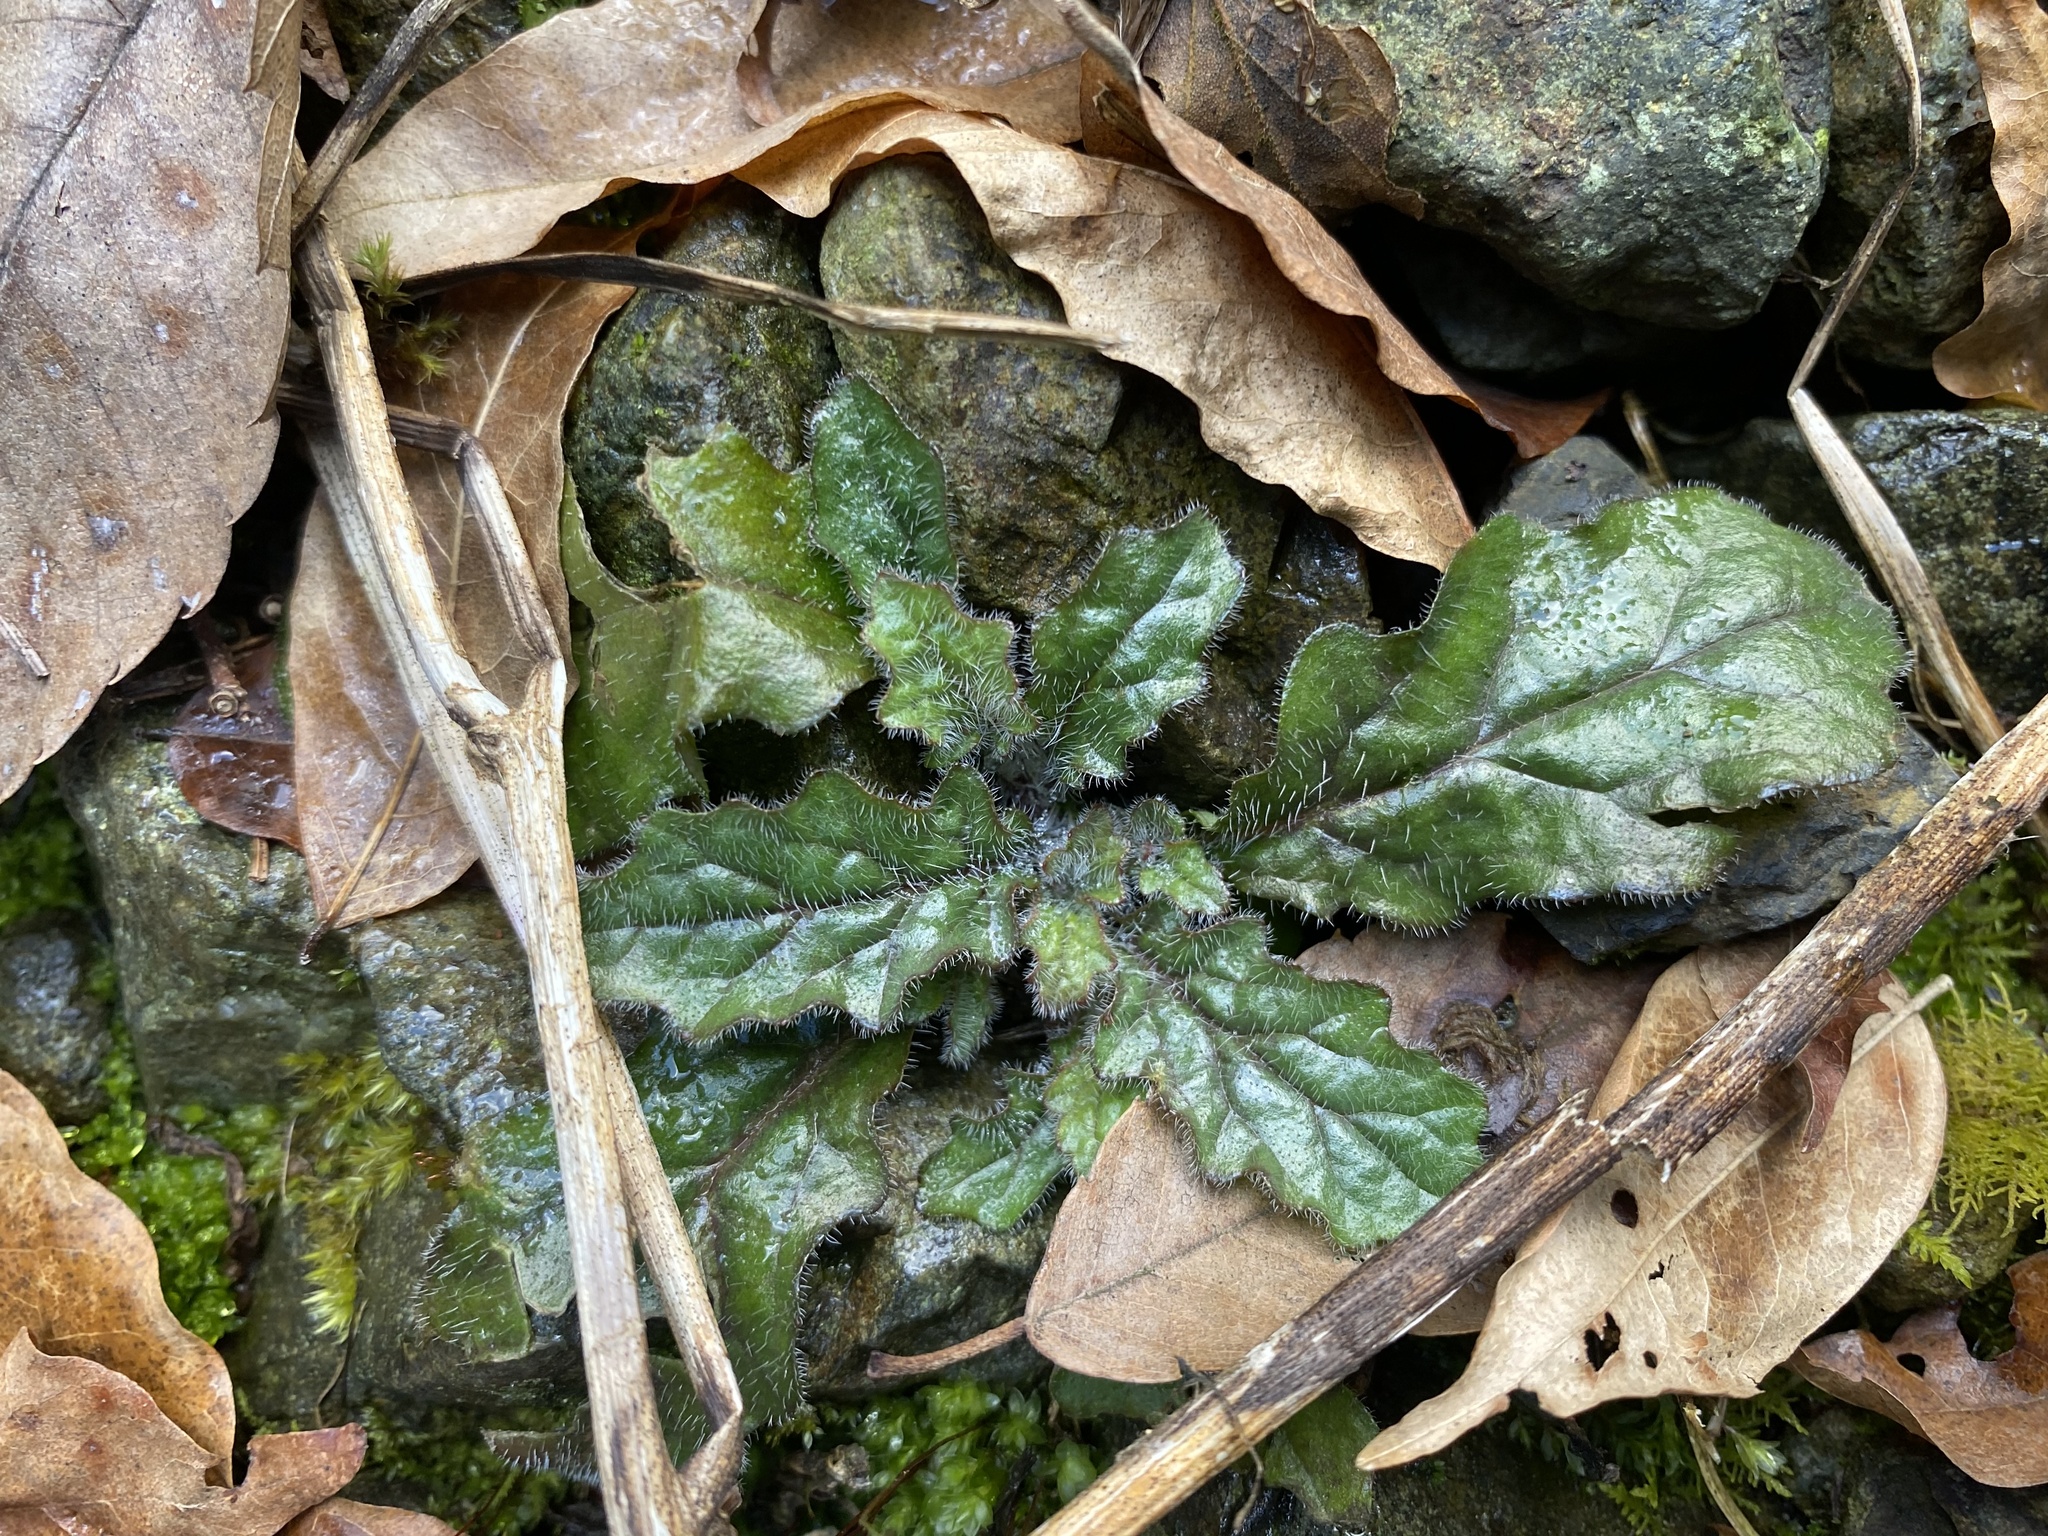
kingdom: Plantae
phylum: Tracheophyta
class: Magnoliopsida
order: Lamiales
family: Lamiaceae
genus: Ajuga
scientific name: Ajuga decumbens
